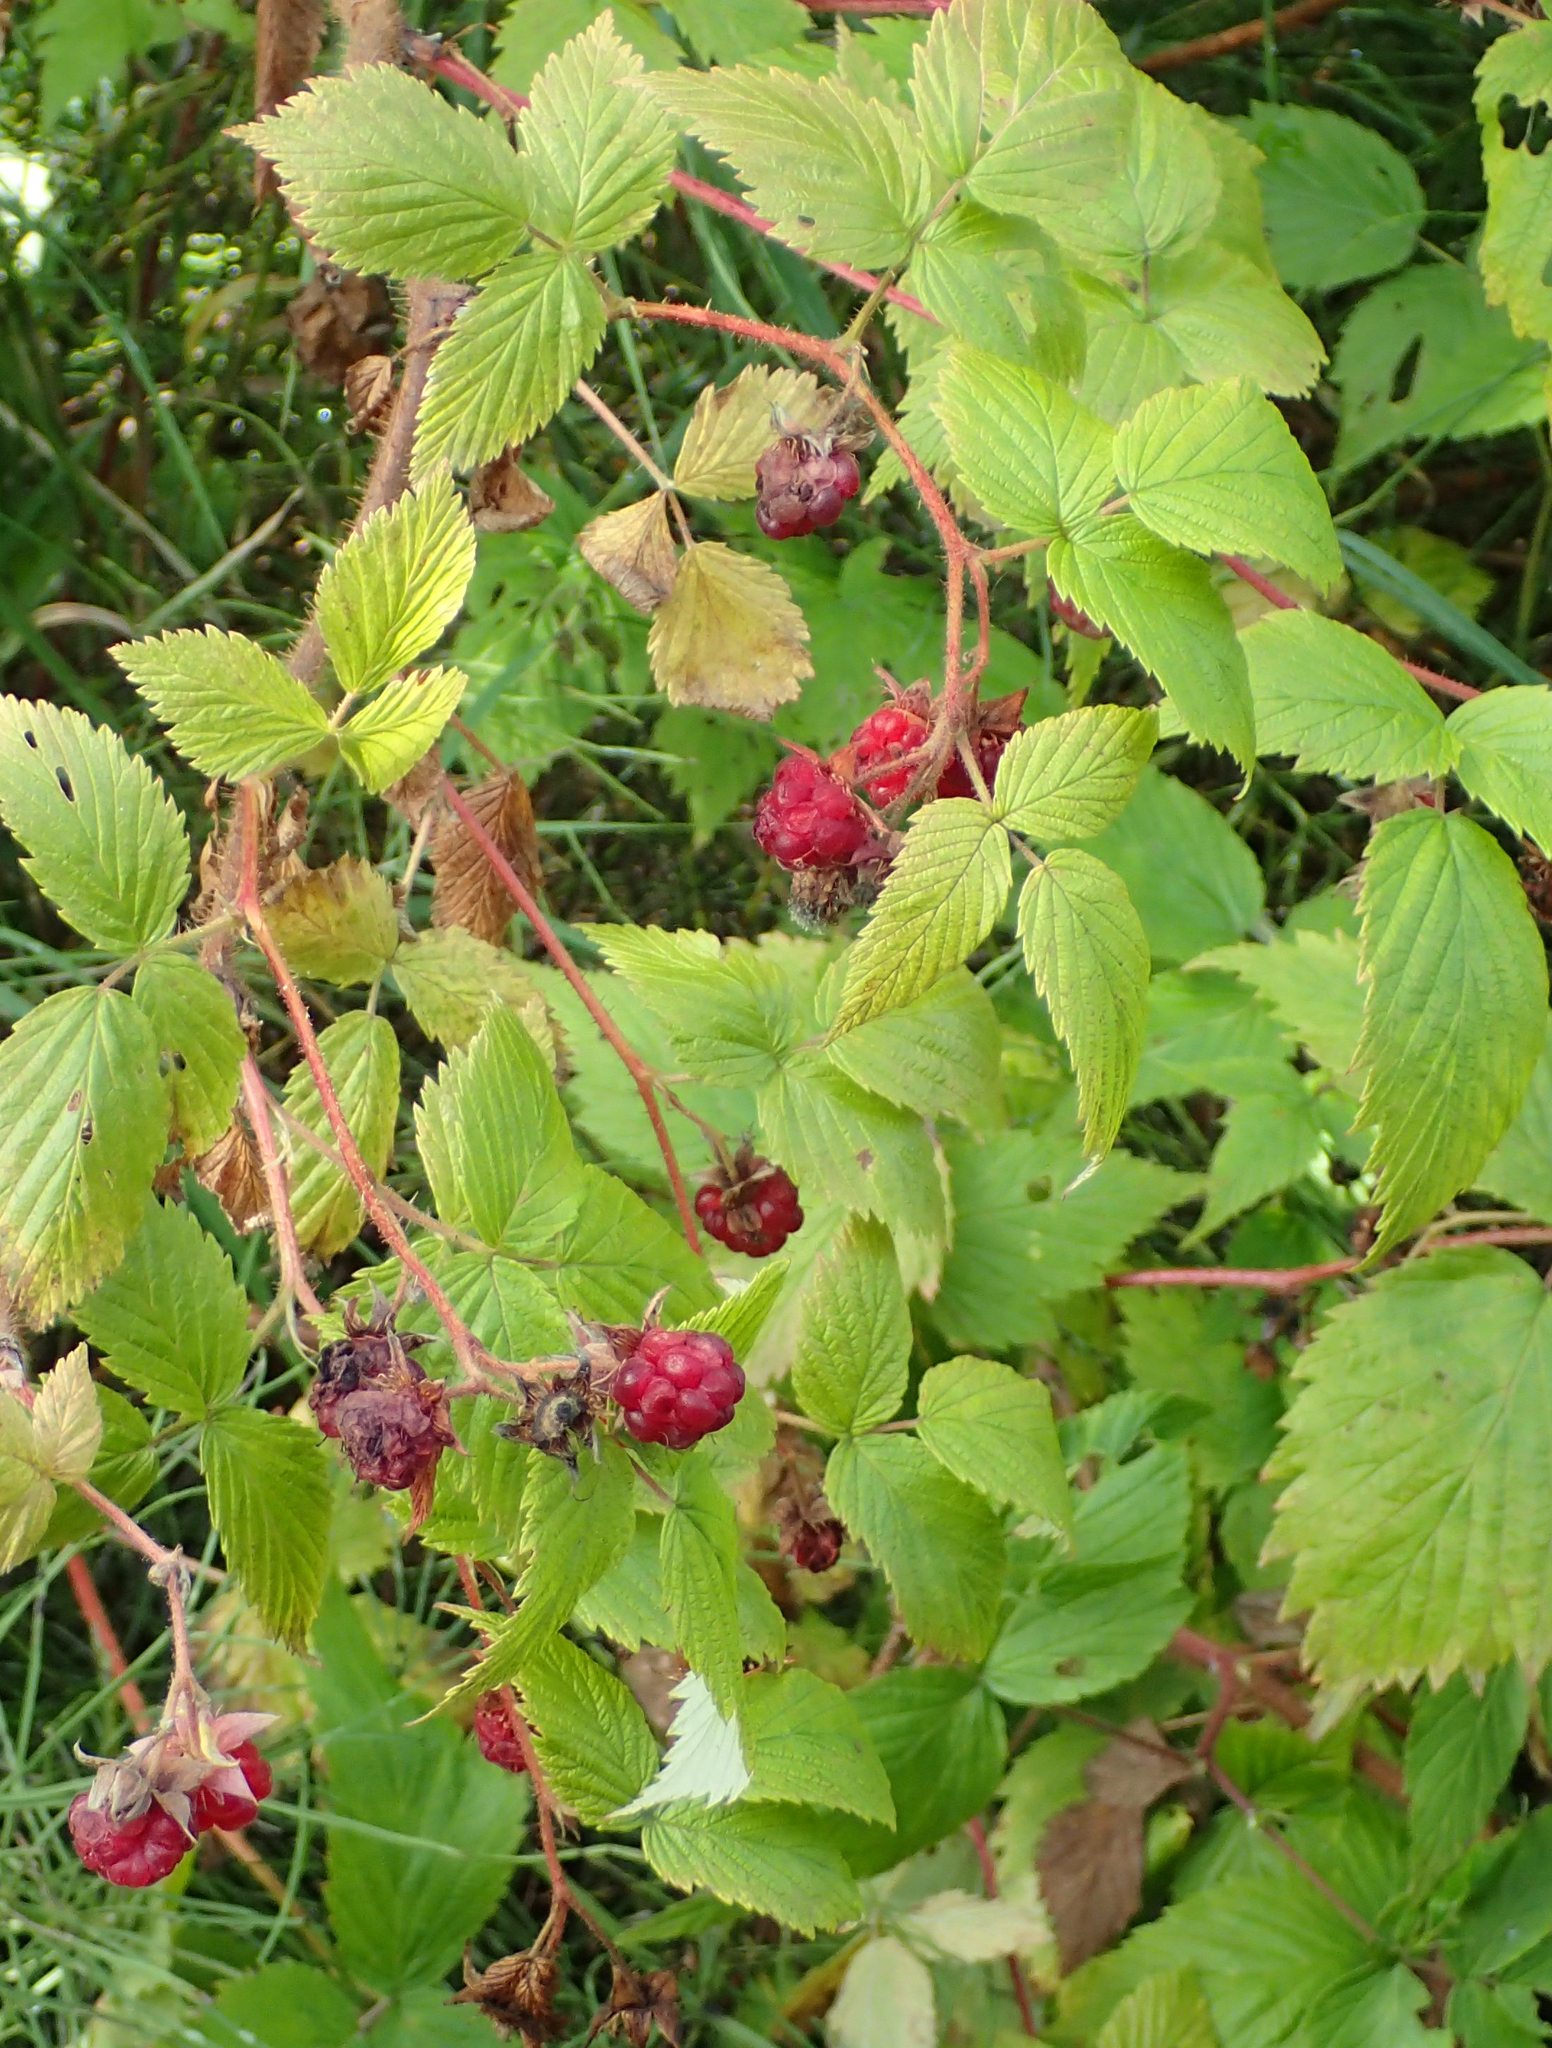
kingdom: Plantae
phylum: Tracheophyta
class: Magnoliopsida
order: Rosales
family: Rosaceae
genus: Rubus
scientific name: Rubus idaeus
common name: Raspberry
